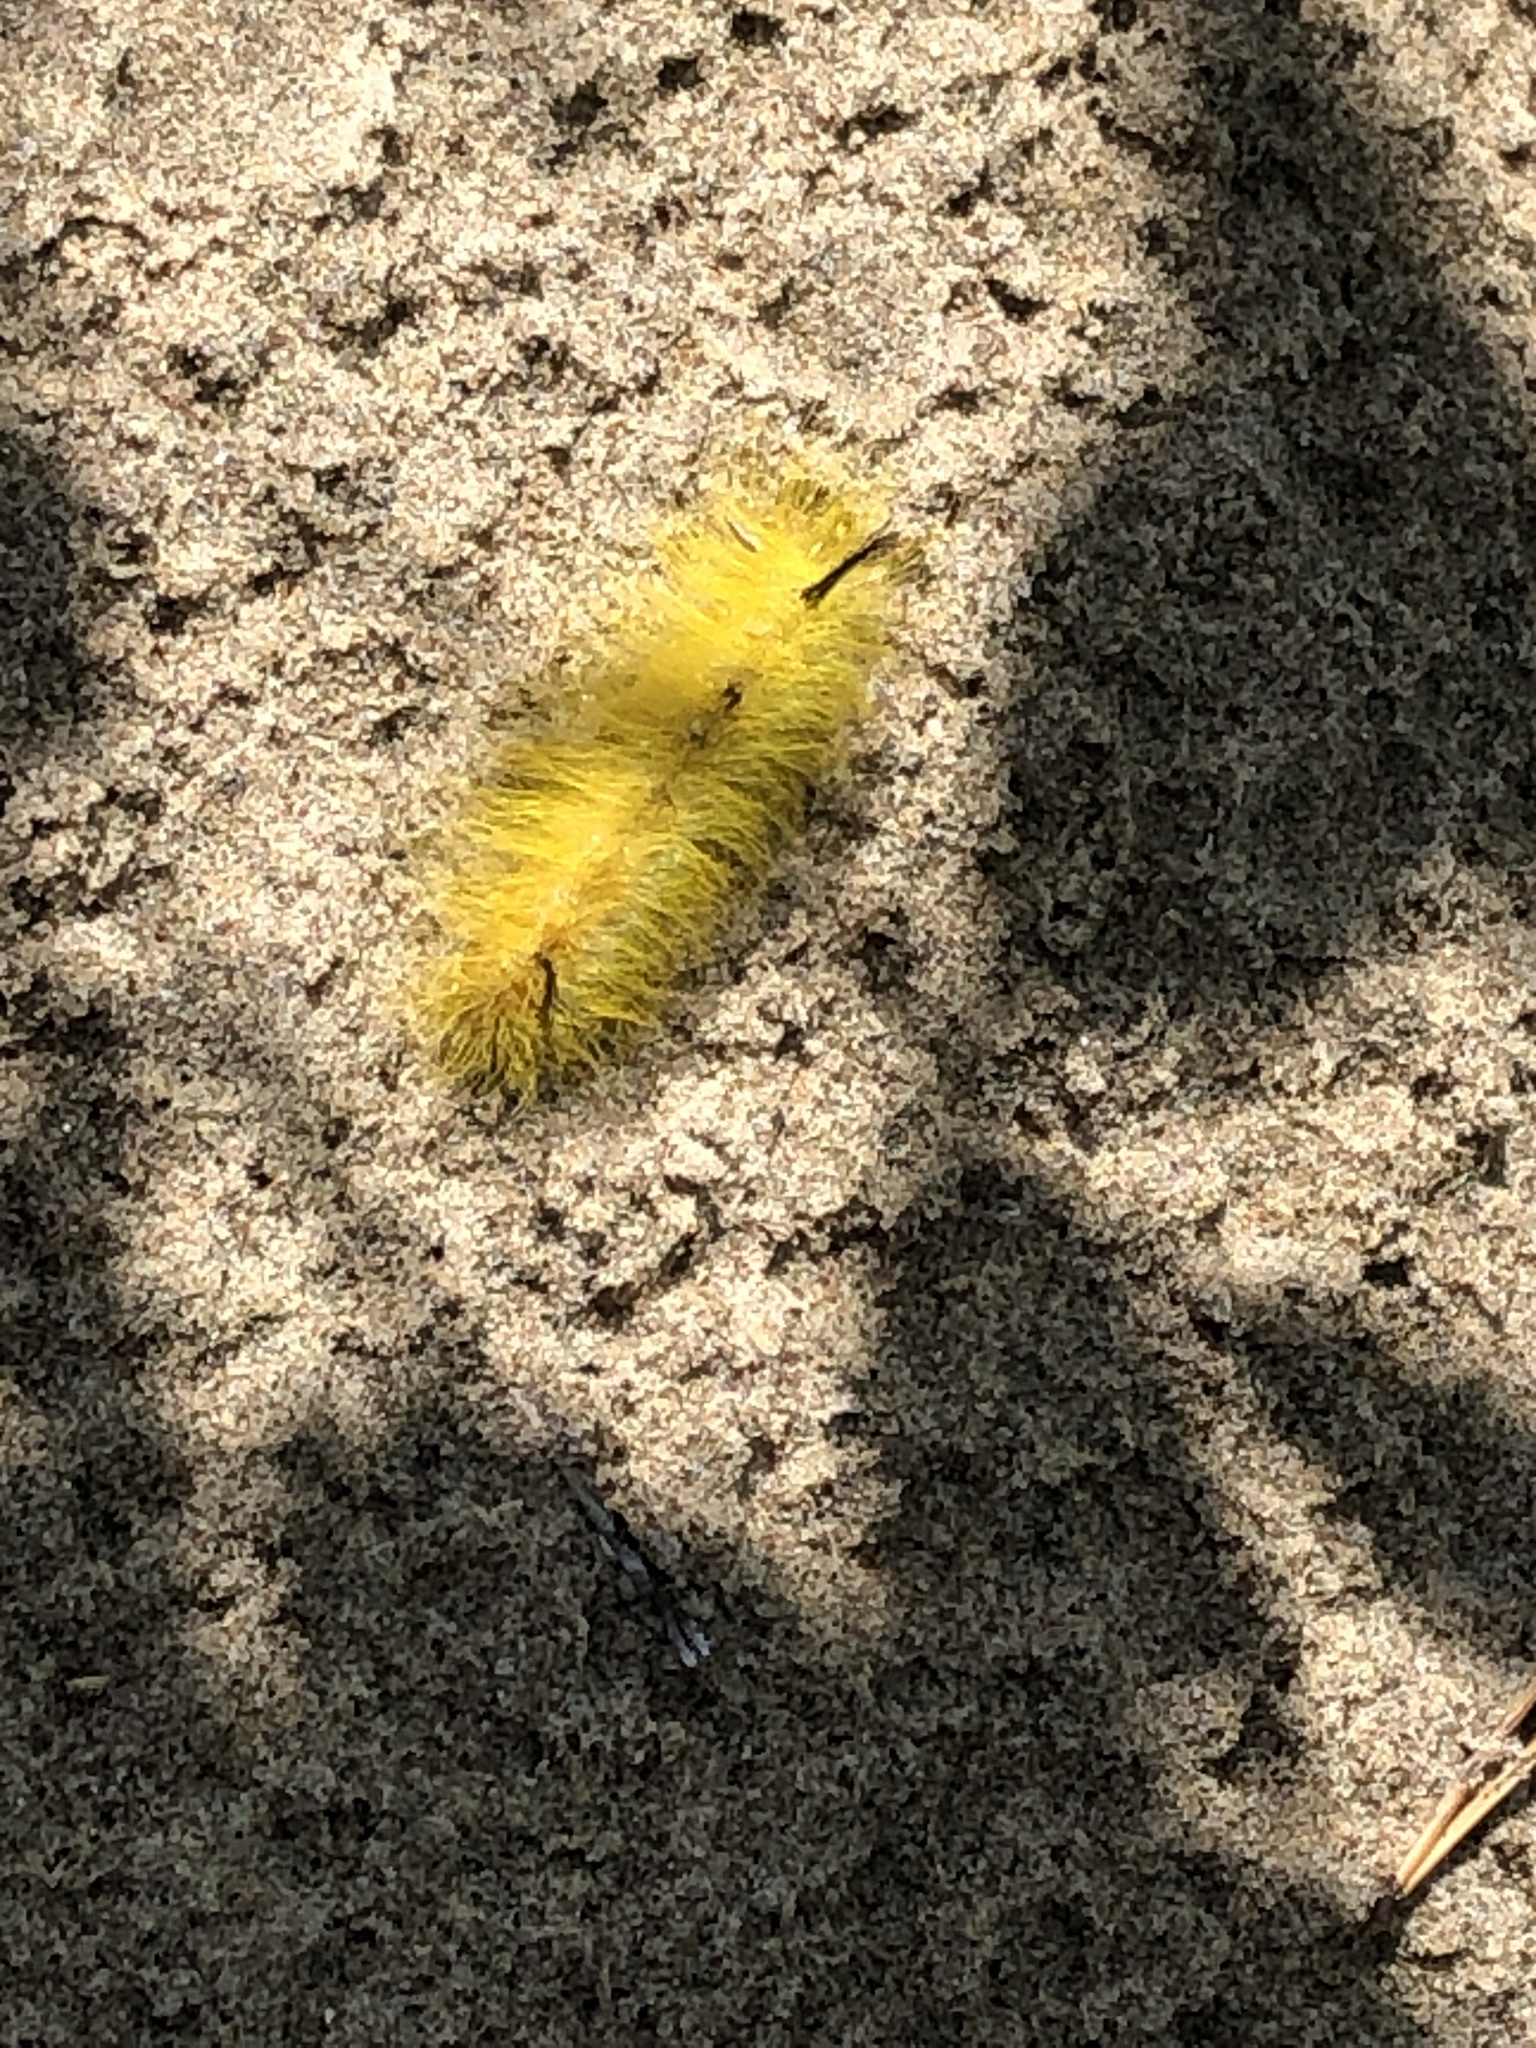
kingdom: Animalia
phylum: Arthropoda
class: Insecta
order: Lepidoptera
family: Noctuidae
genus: Acronicta
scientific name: Acronicta lepusculina
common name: Cottonwood dagger
